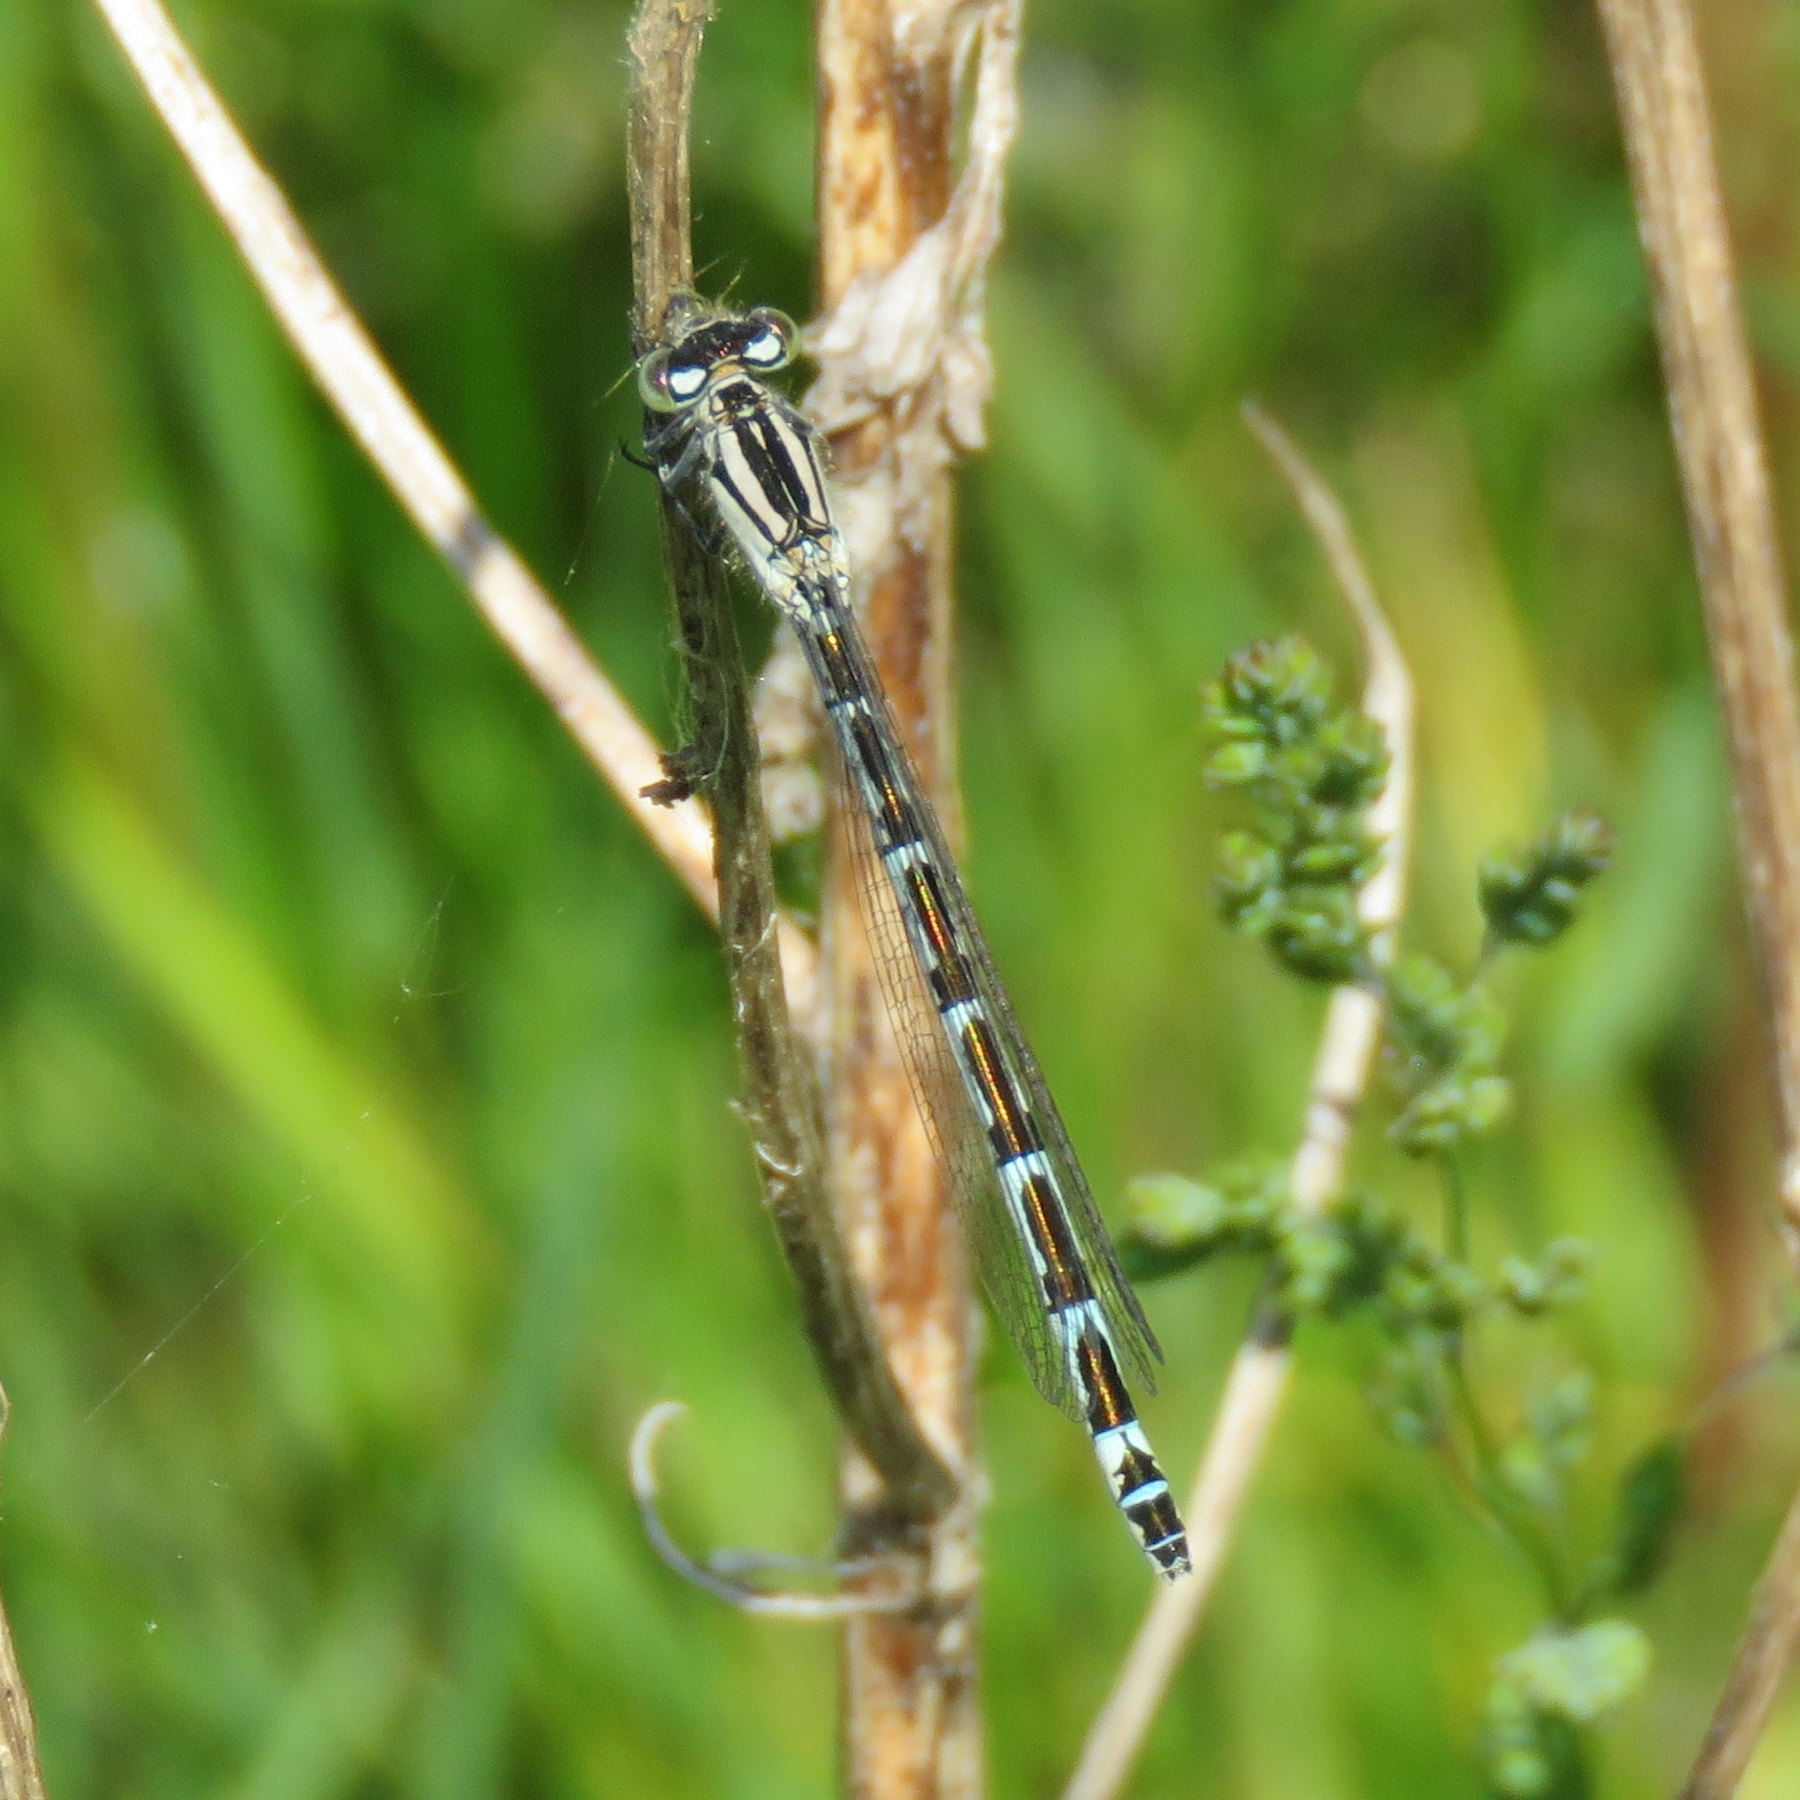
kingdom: Animalia
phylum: Arthropoda
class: Insecta
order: Odonata
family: Coenagrionidae
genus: Enallagma
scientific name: Enallagma cyathigerum
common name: Common blue damselfly
